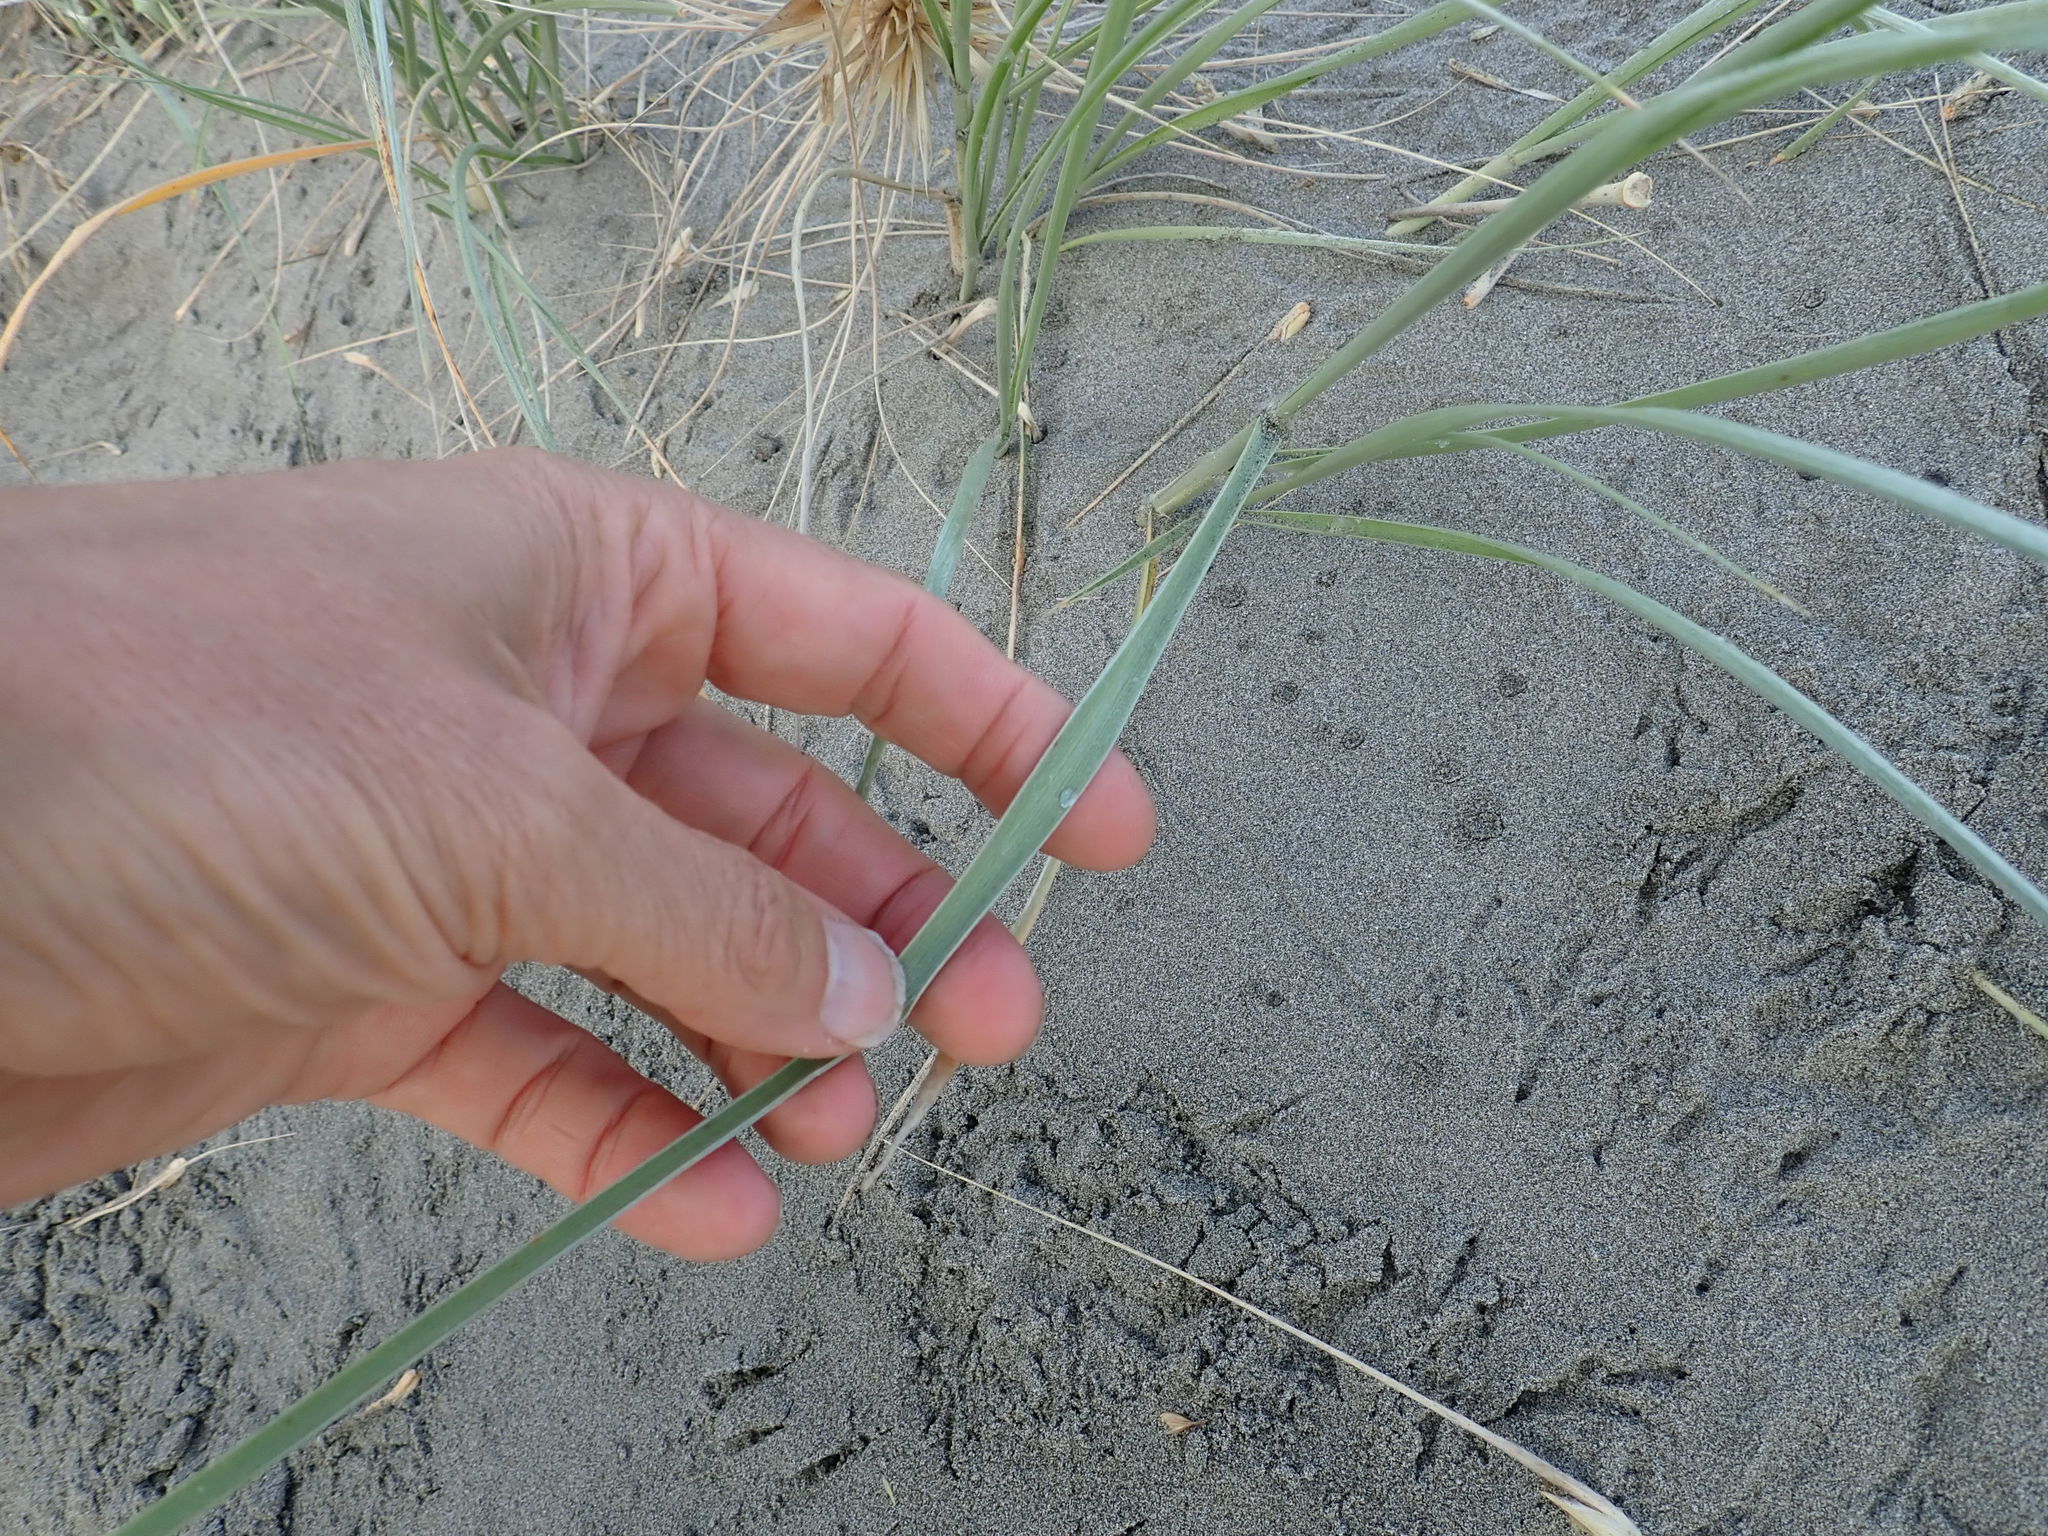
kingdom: Plantae
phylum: Tracheophyta
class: Liliopsida
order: Poales
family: Poaceae
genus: Spinifex
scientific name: Spinifex sericeus
